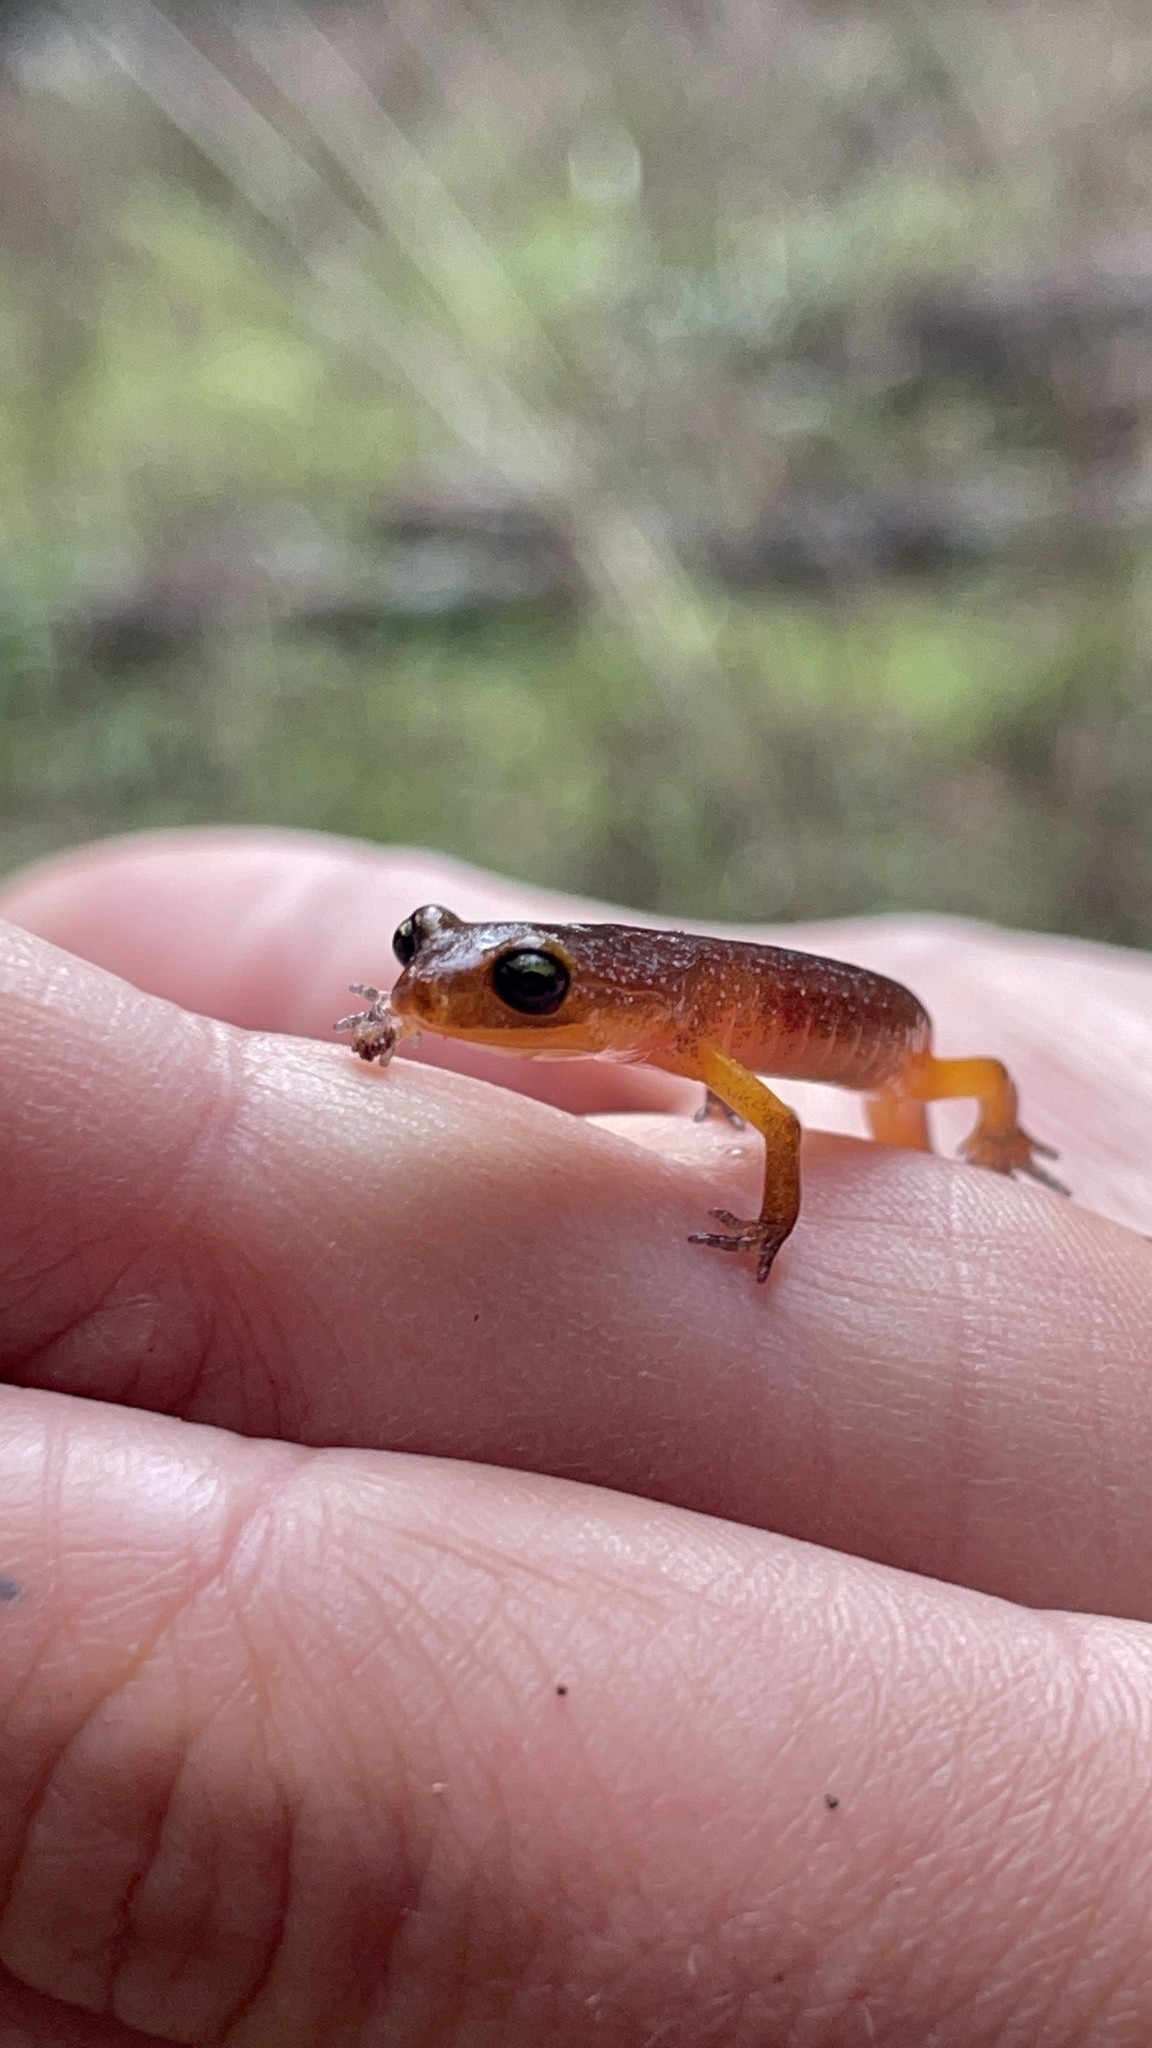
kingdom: Animalia
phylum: Chordata
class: Amphibia
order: Caudata
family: Plethodontidae
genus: Ensatina
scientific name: Ensatina eschscholtzii
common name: Ensatina
